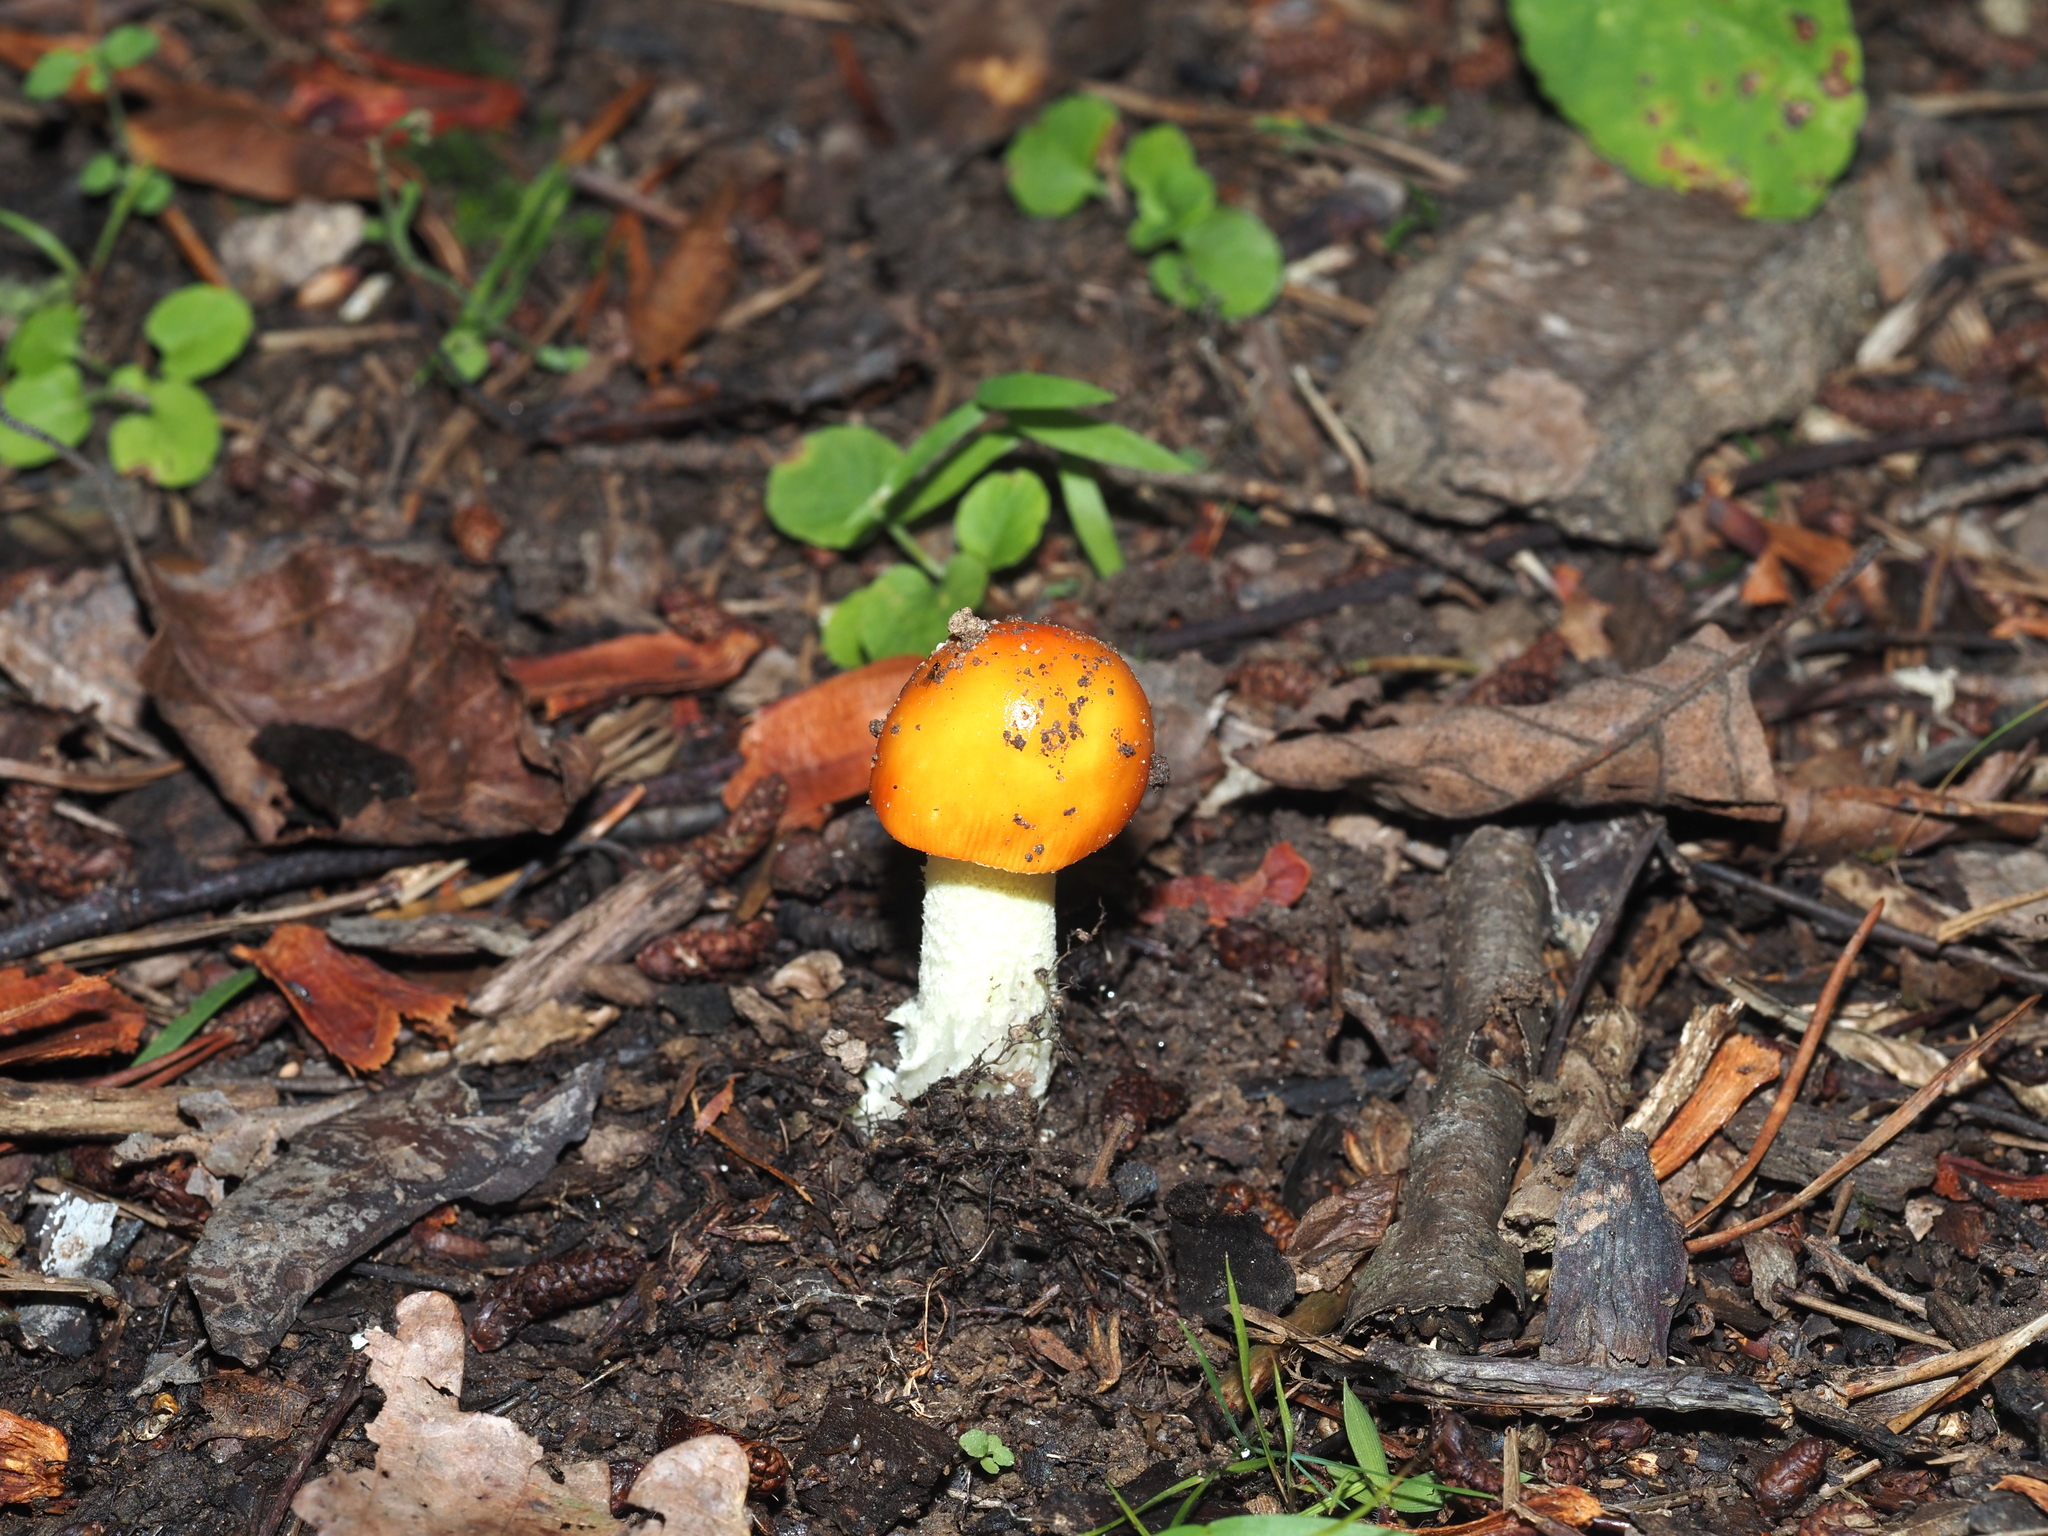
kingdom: Fungi
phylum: Basidiomycota
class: Agaricomycetes
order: Agaricales
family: Amanitaceae
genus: Amanita
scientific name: Amanita parcivolvata
